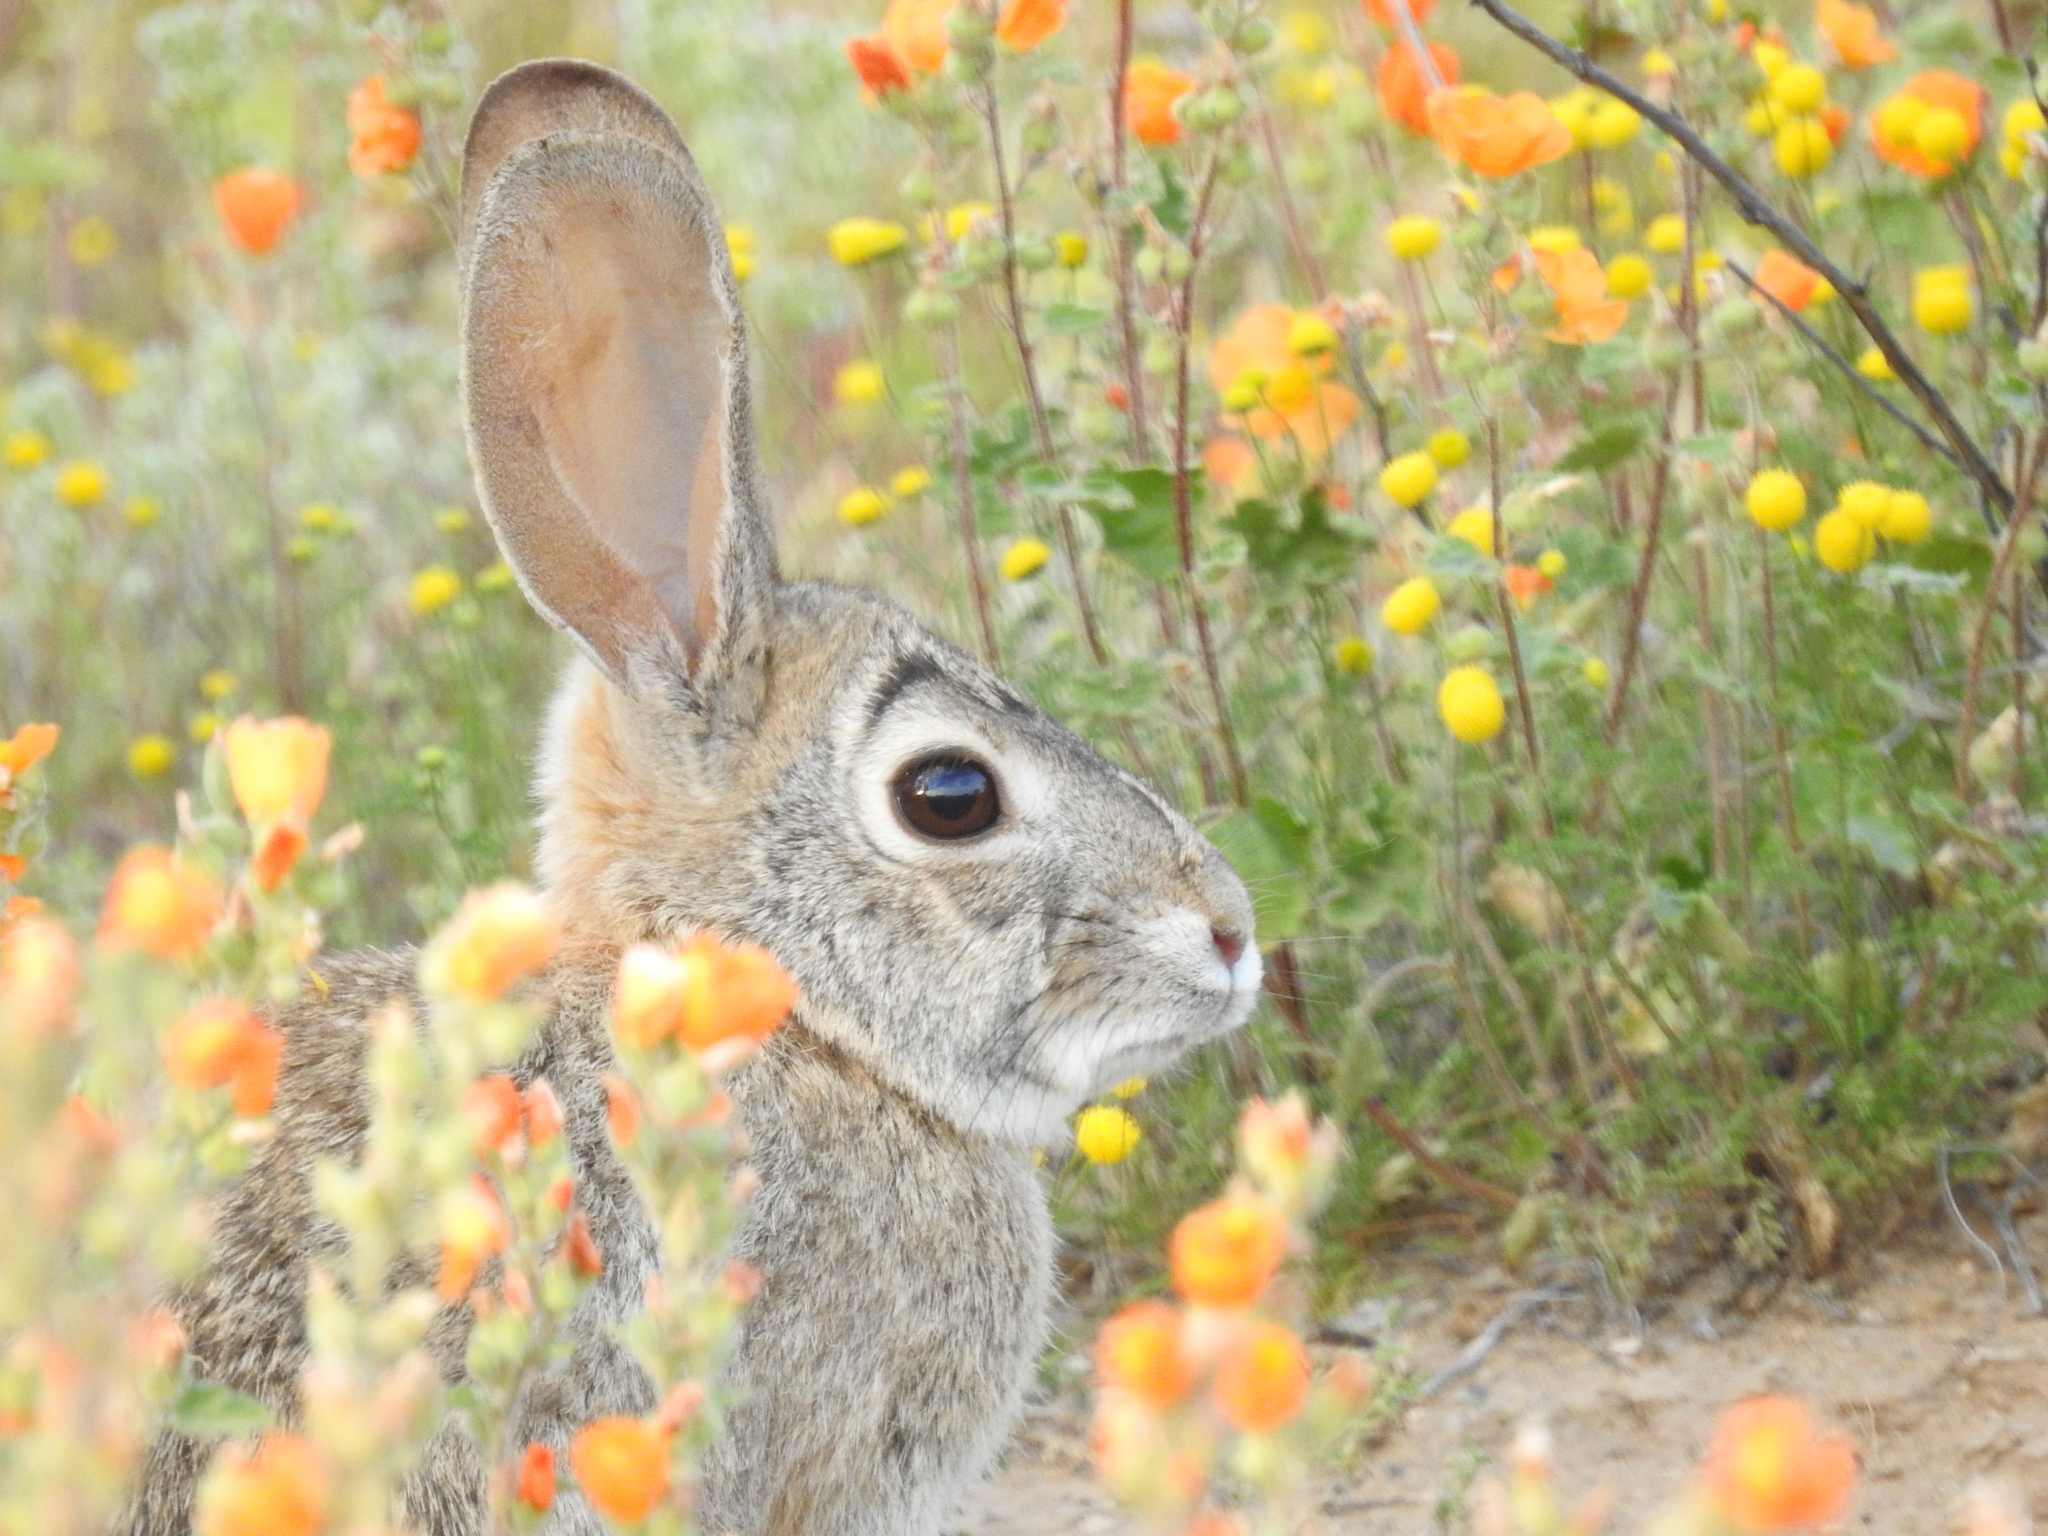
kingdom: Animalia
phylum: Chordata
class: Mammalia
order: Lagomorpha
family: Leporidae
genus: Sylvilagus
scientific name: Sylvilagus audubonii
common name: Desert cottontail
